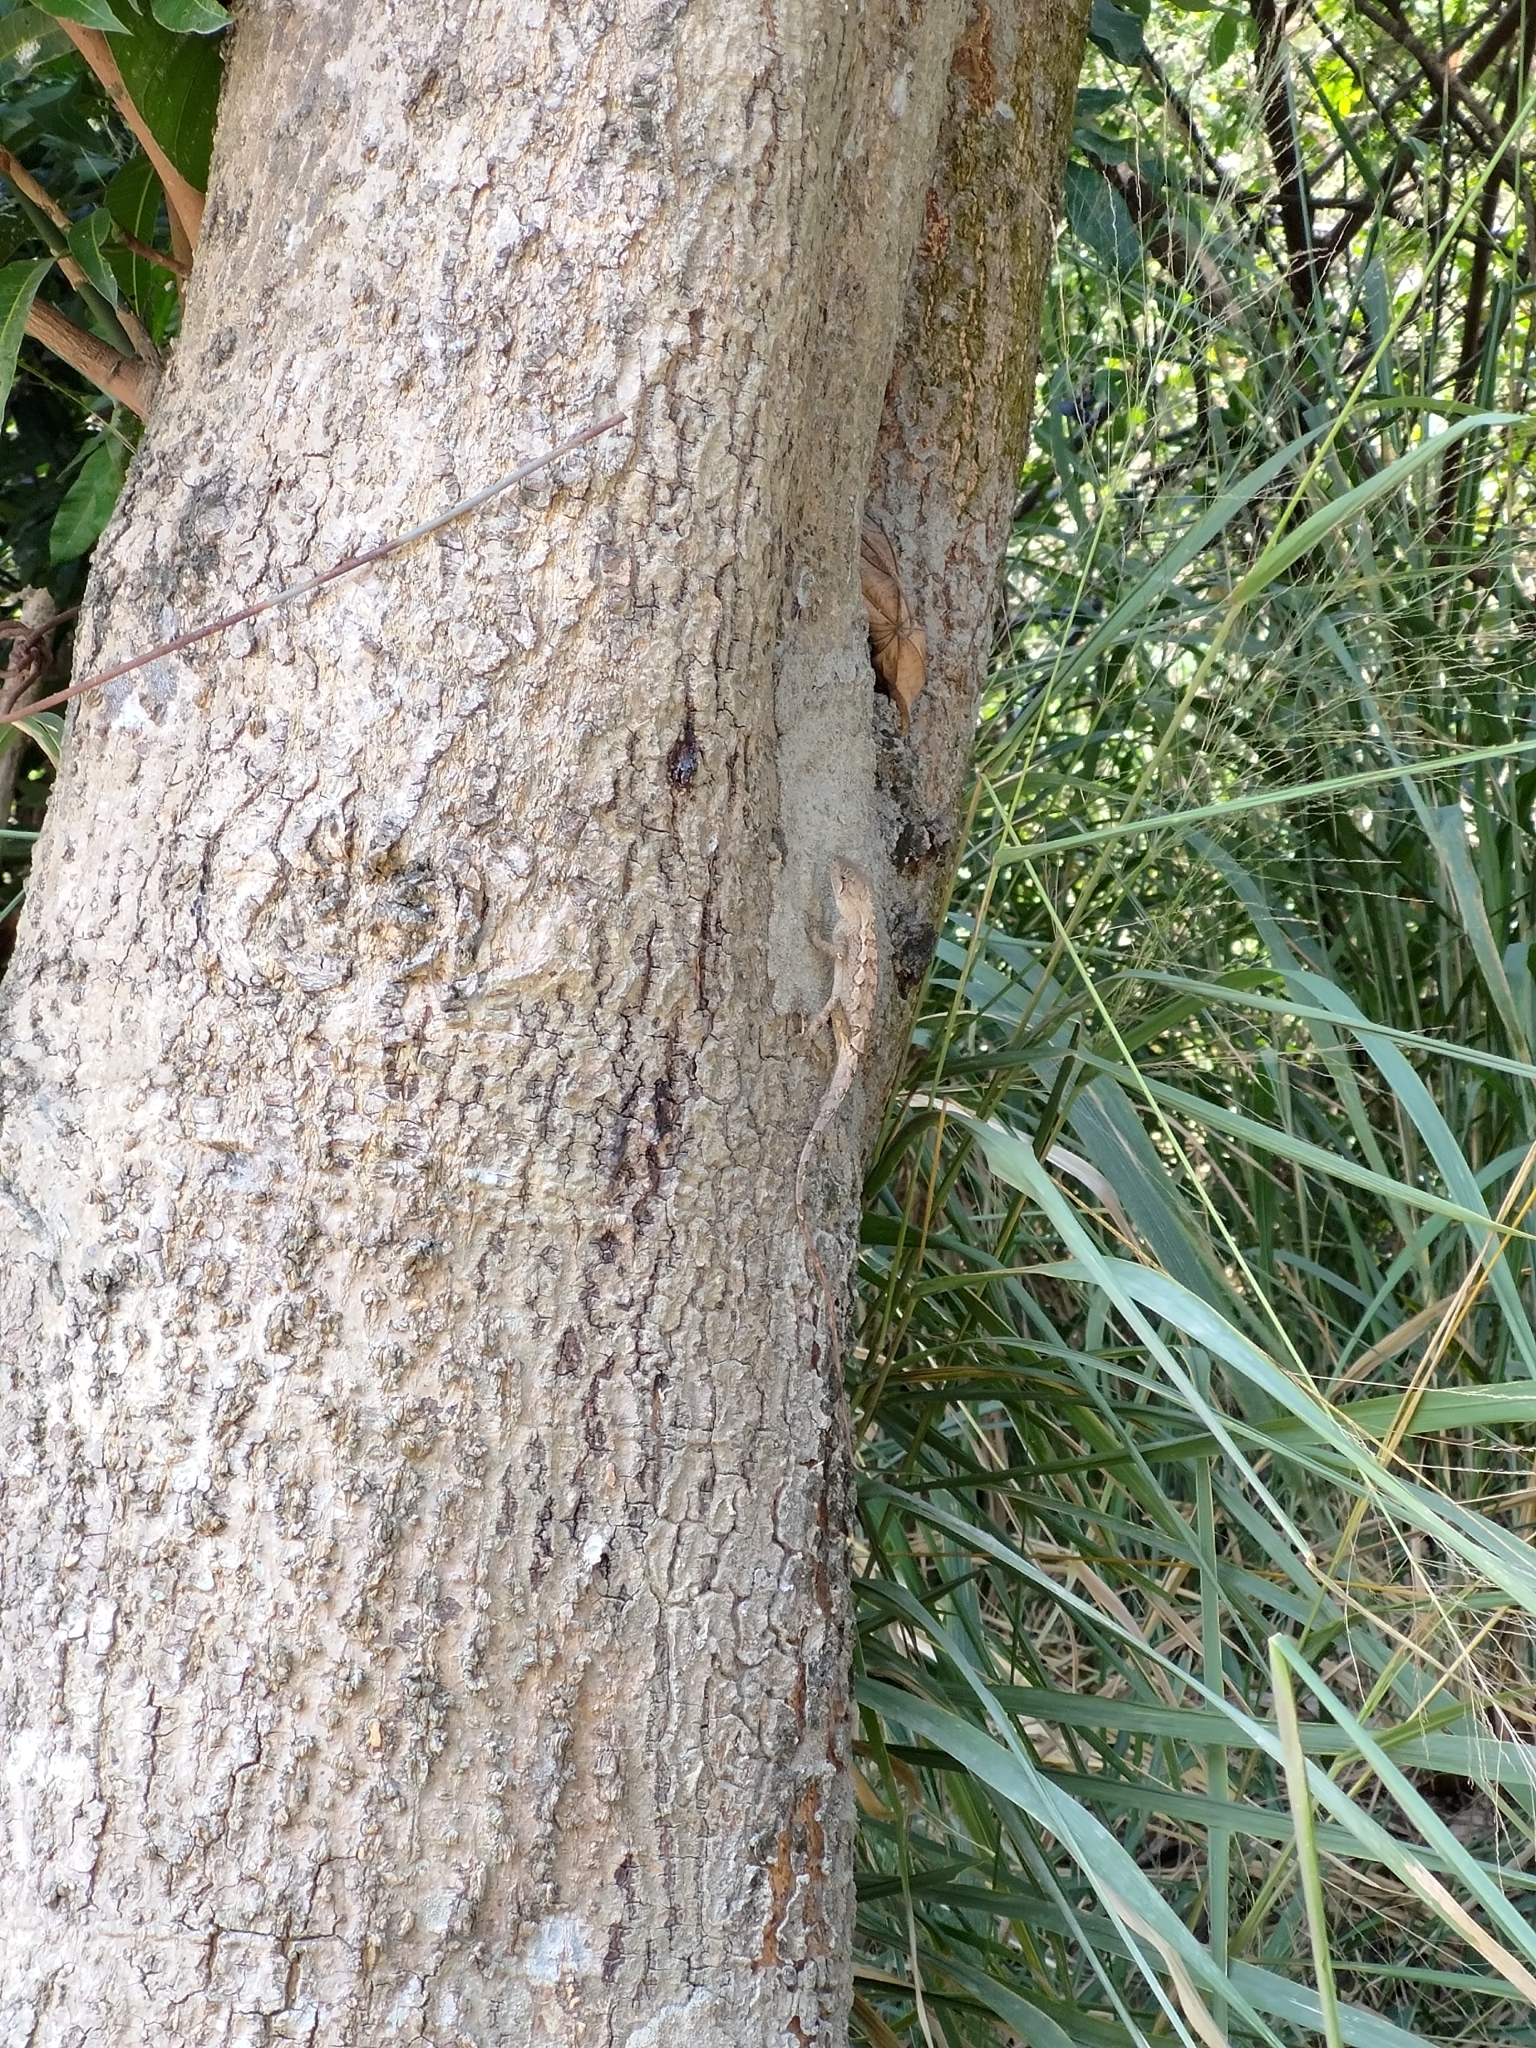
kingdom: Animalia
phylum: Chordata
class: Squamata
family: Agamidae
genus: Diploderma
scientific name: Diploderma swinhonis
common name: Taiwan japalure
